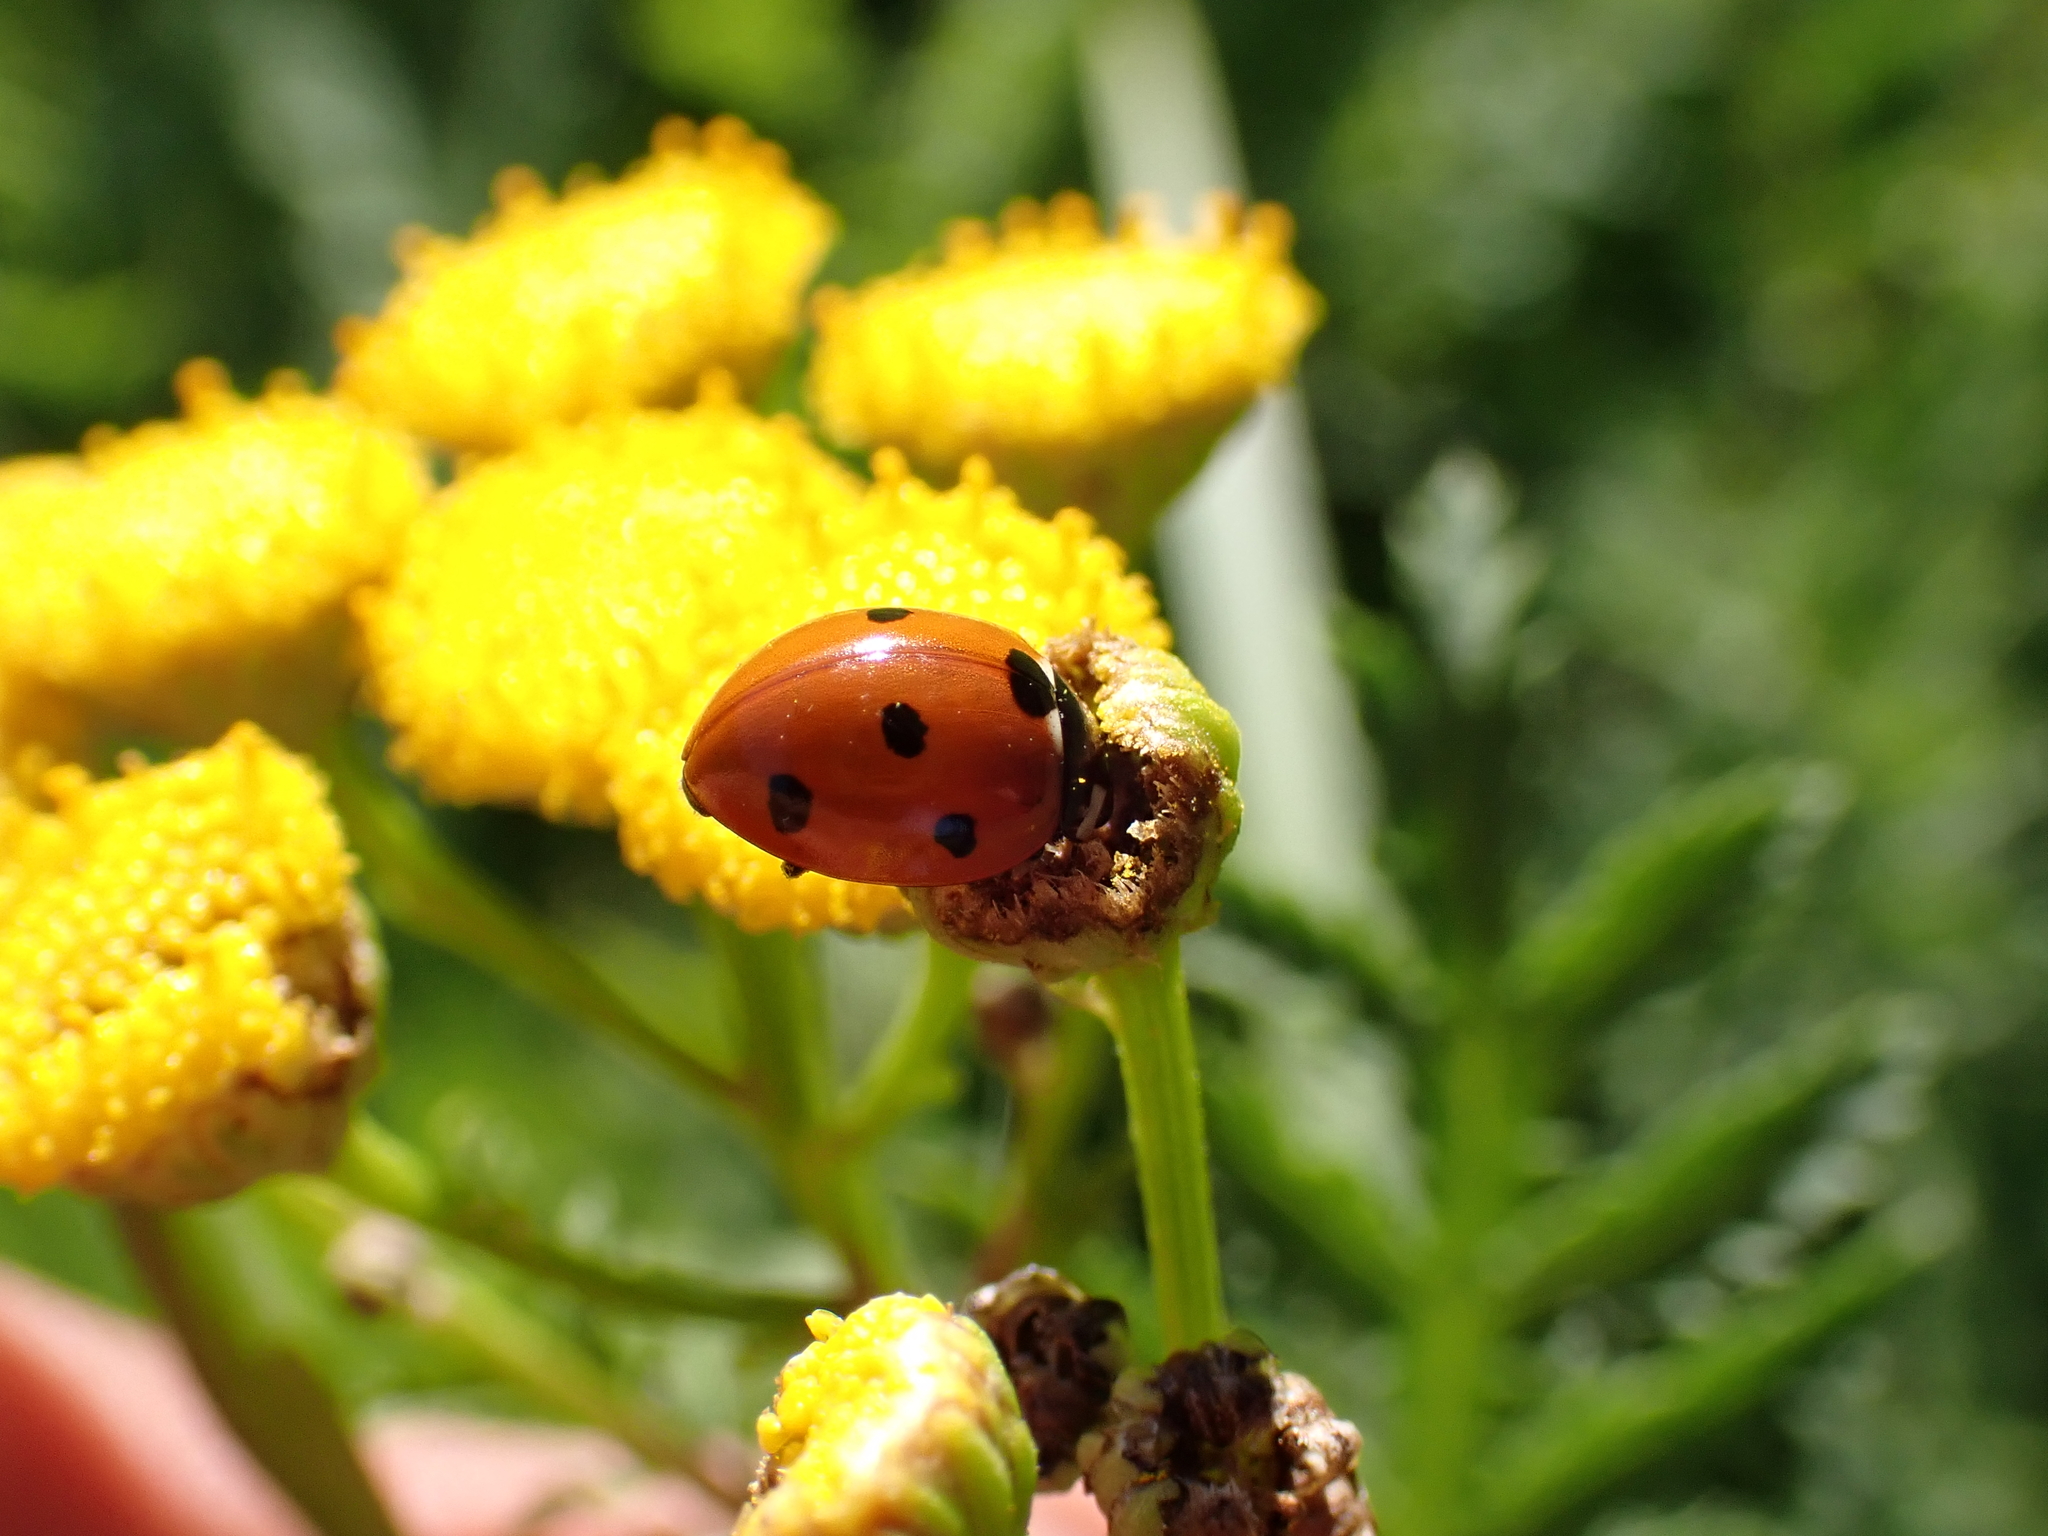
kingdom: Animalia
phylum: Arthropoda
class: Insecta
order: Coleoptera
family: Coccinellidae
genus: Coccinella
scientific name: Coccinella septempunctata
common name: Sevenspotted lady beetle
